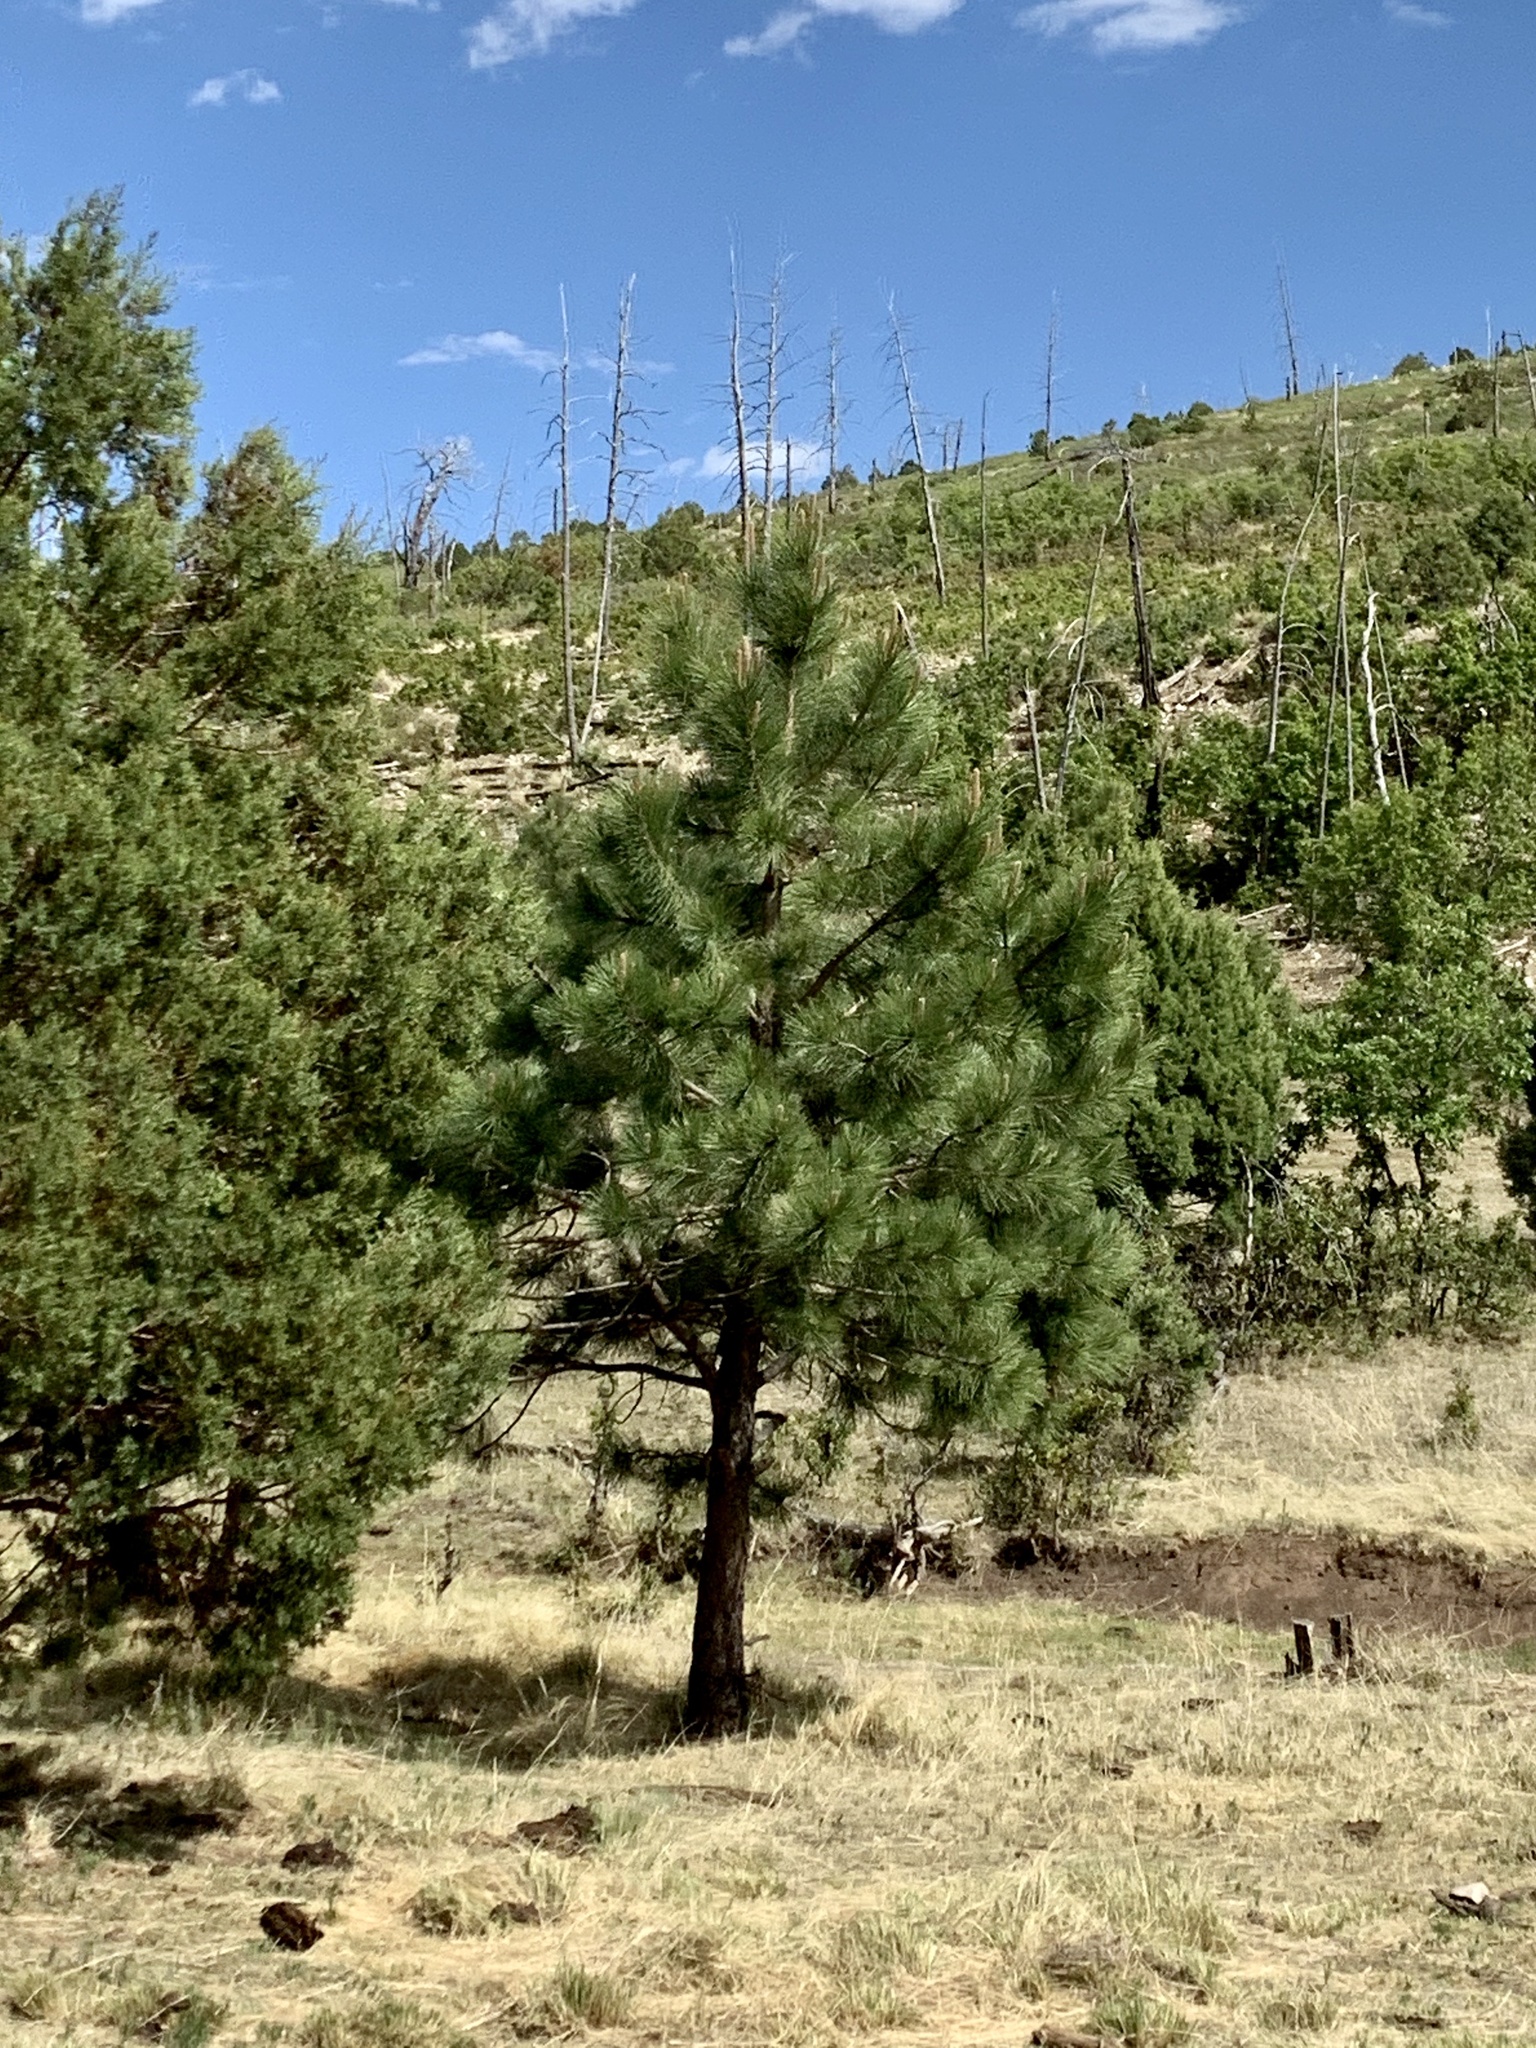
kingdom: Plantae
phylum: Tracheophyta
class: Pinopsida
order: Pinales
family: Pinaceae
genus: Pinus
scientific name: Pinus ponderosa
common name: Western yellow-pine
